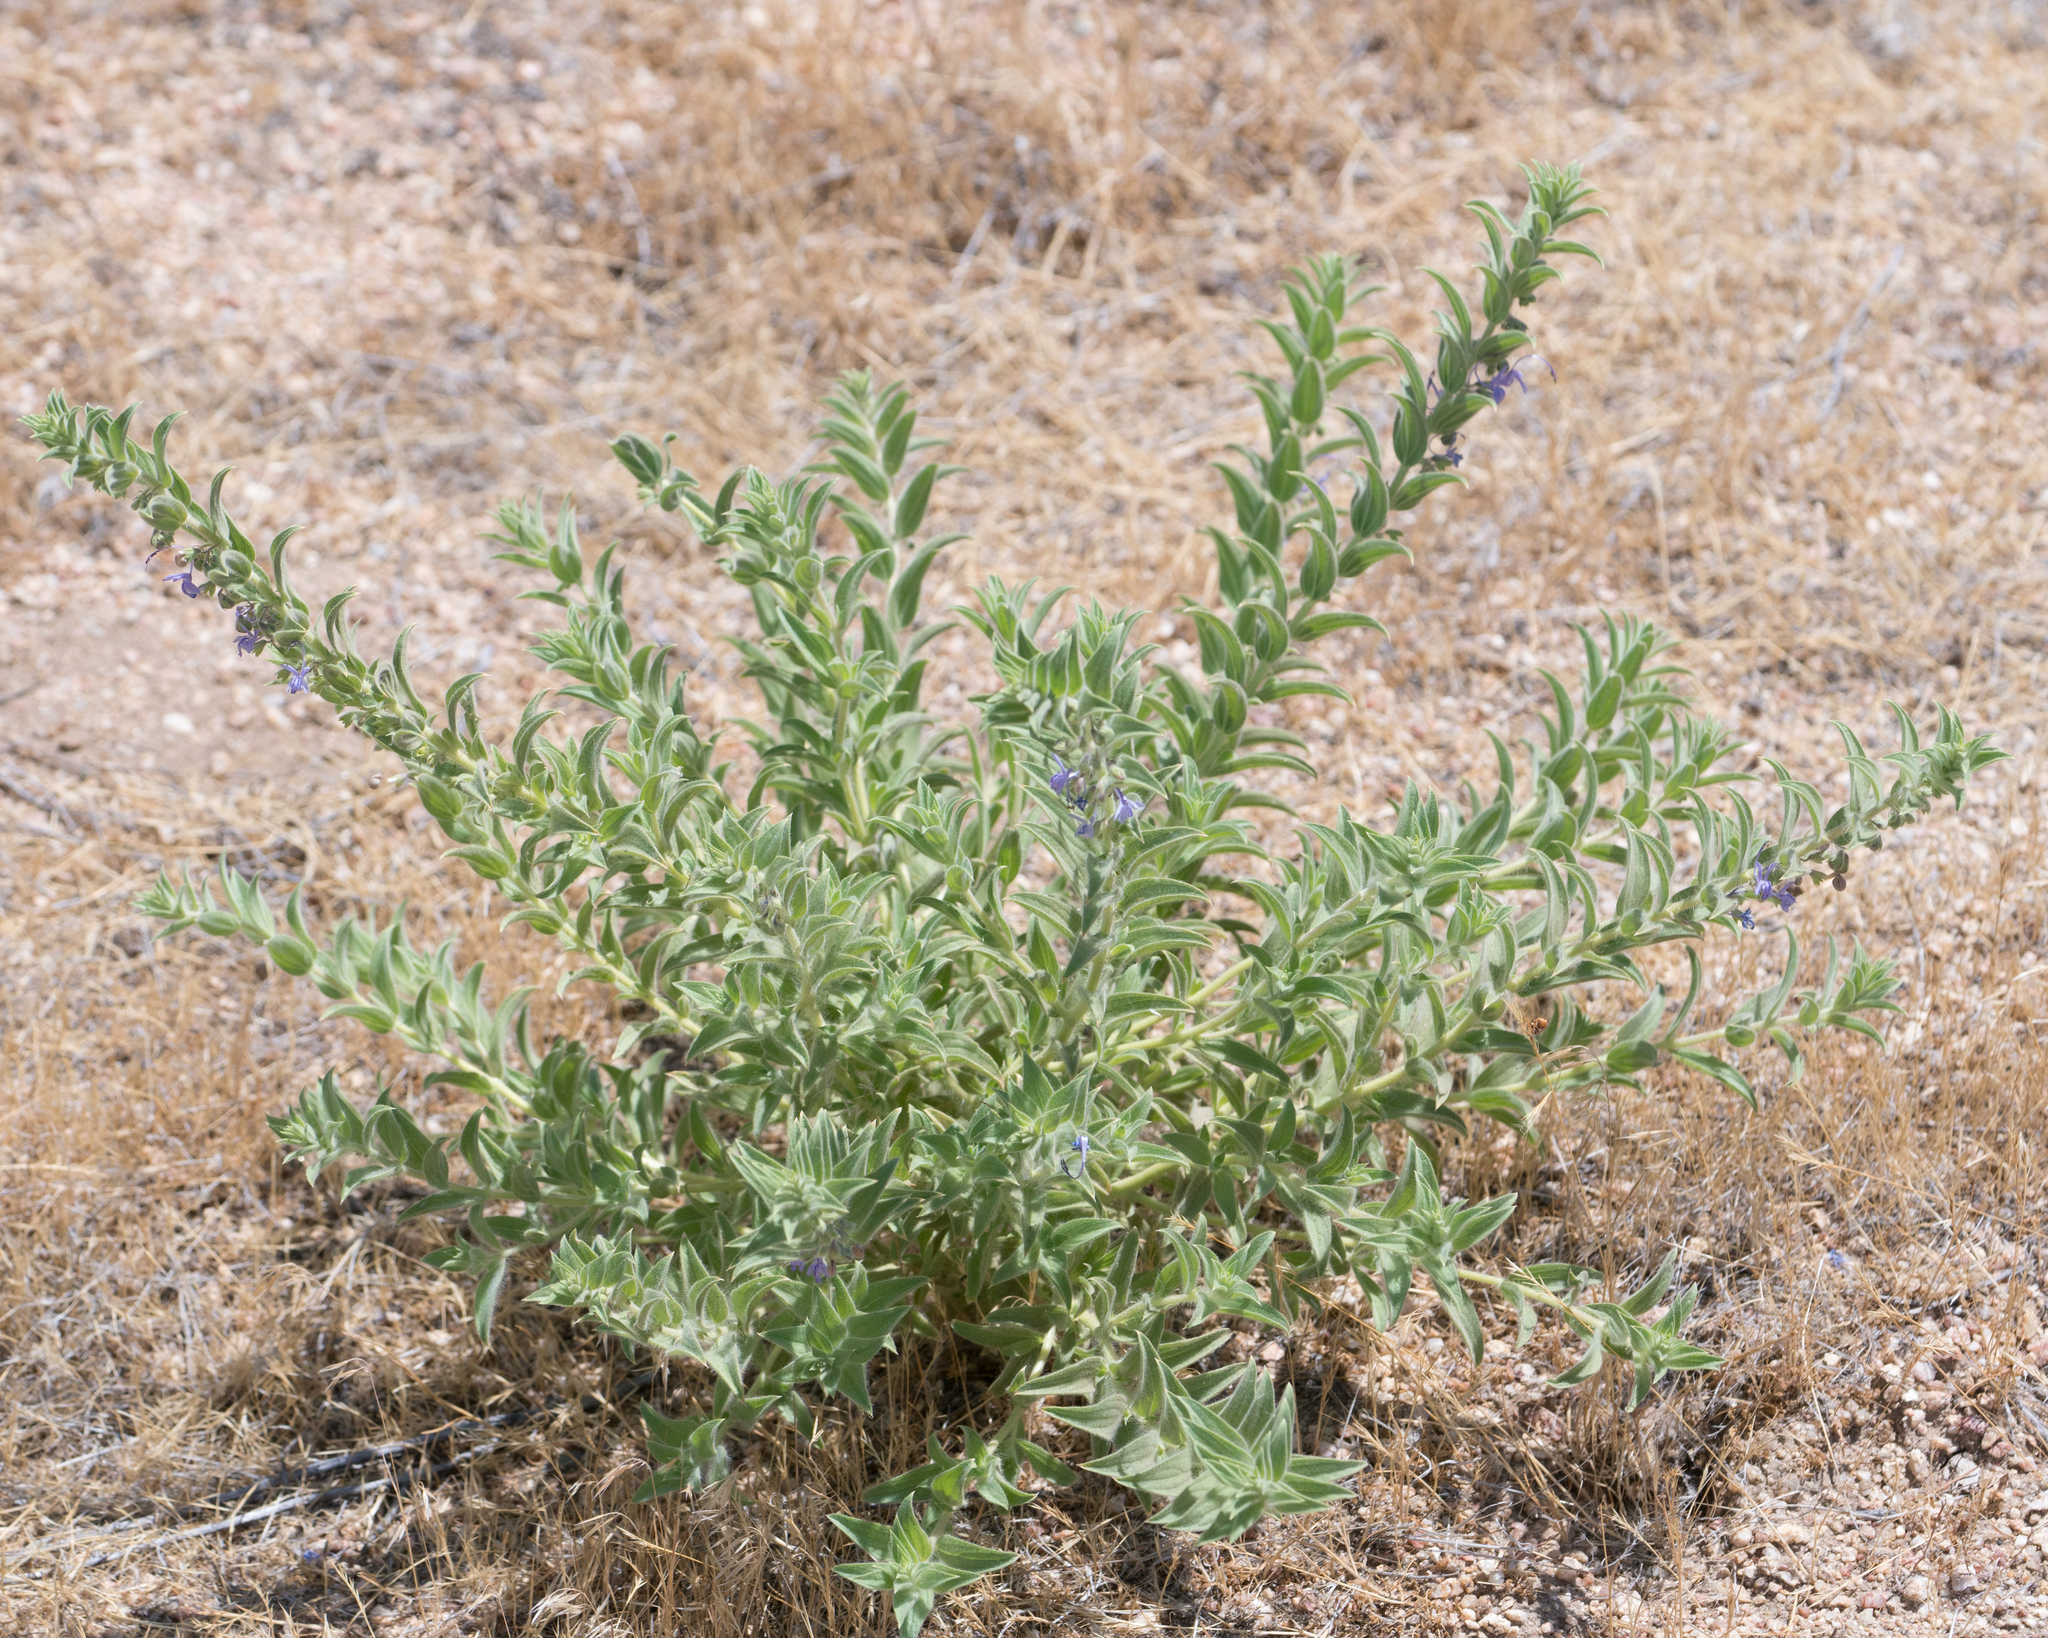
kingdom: Plantae
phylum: Tracheophyta
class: Magnoliopsida
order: Lamiales
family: Lamiaceae
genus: Trichostema
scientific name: Trichostema lanceolatum
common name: Vinegar-weed
